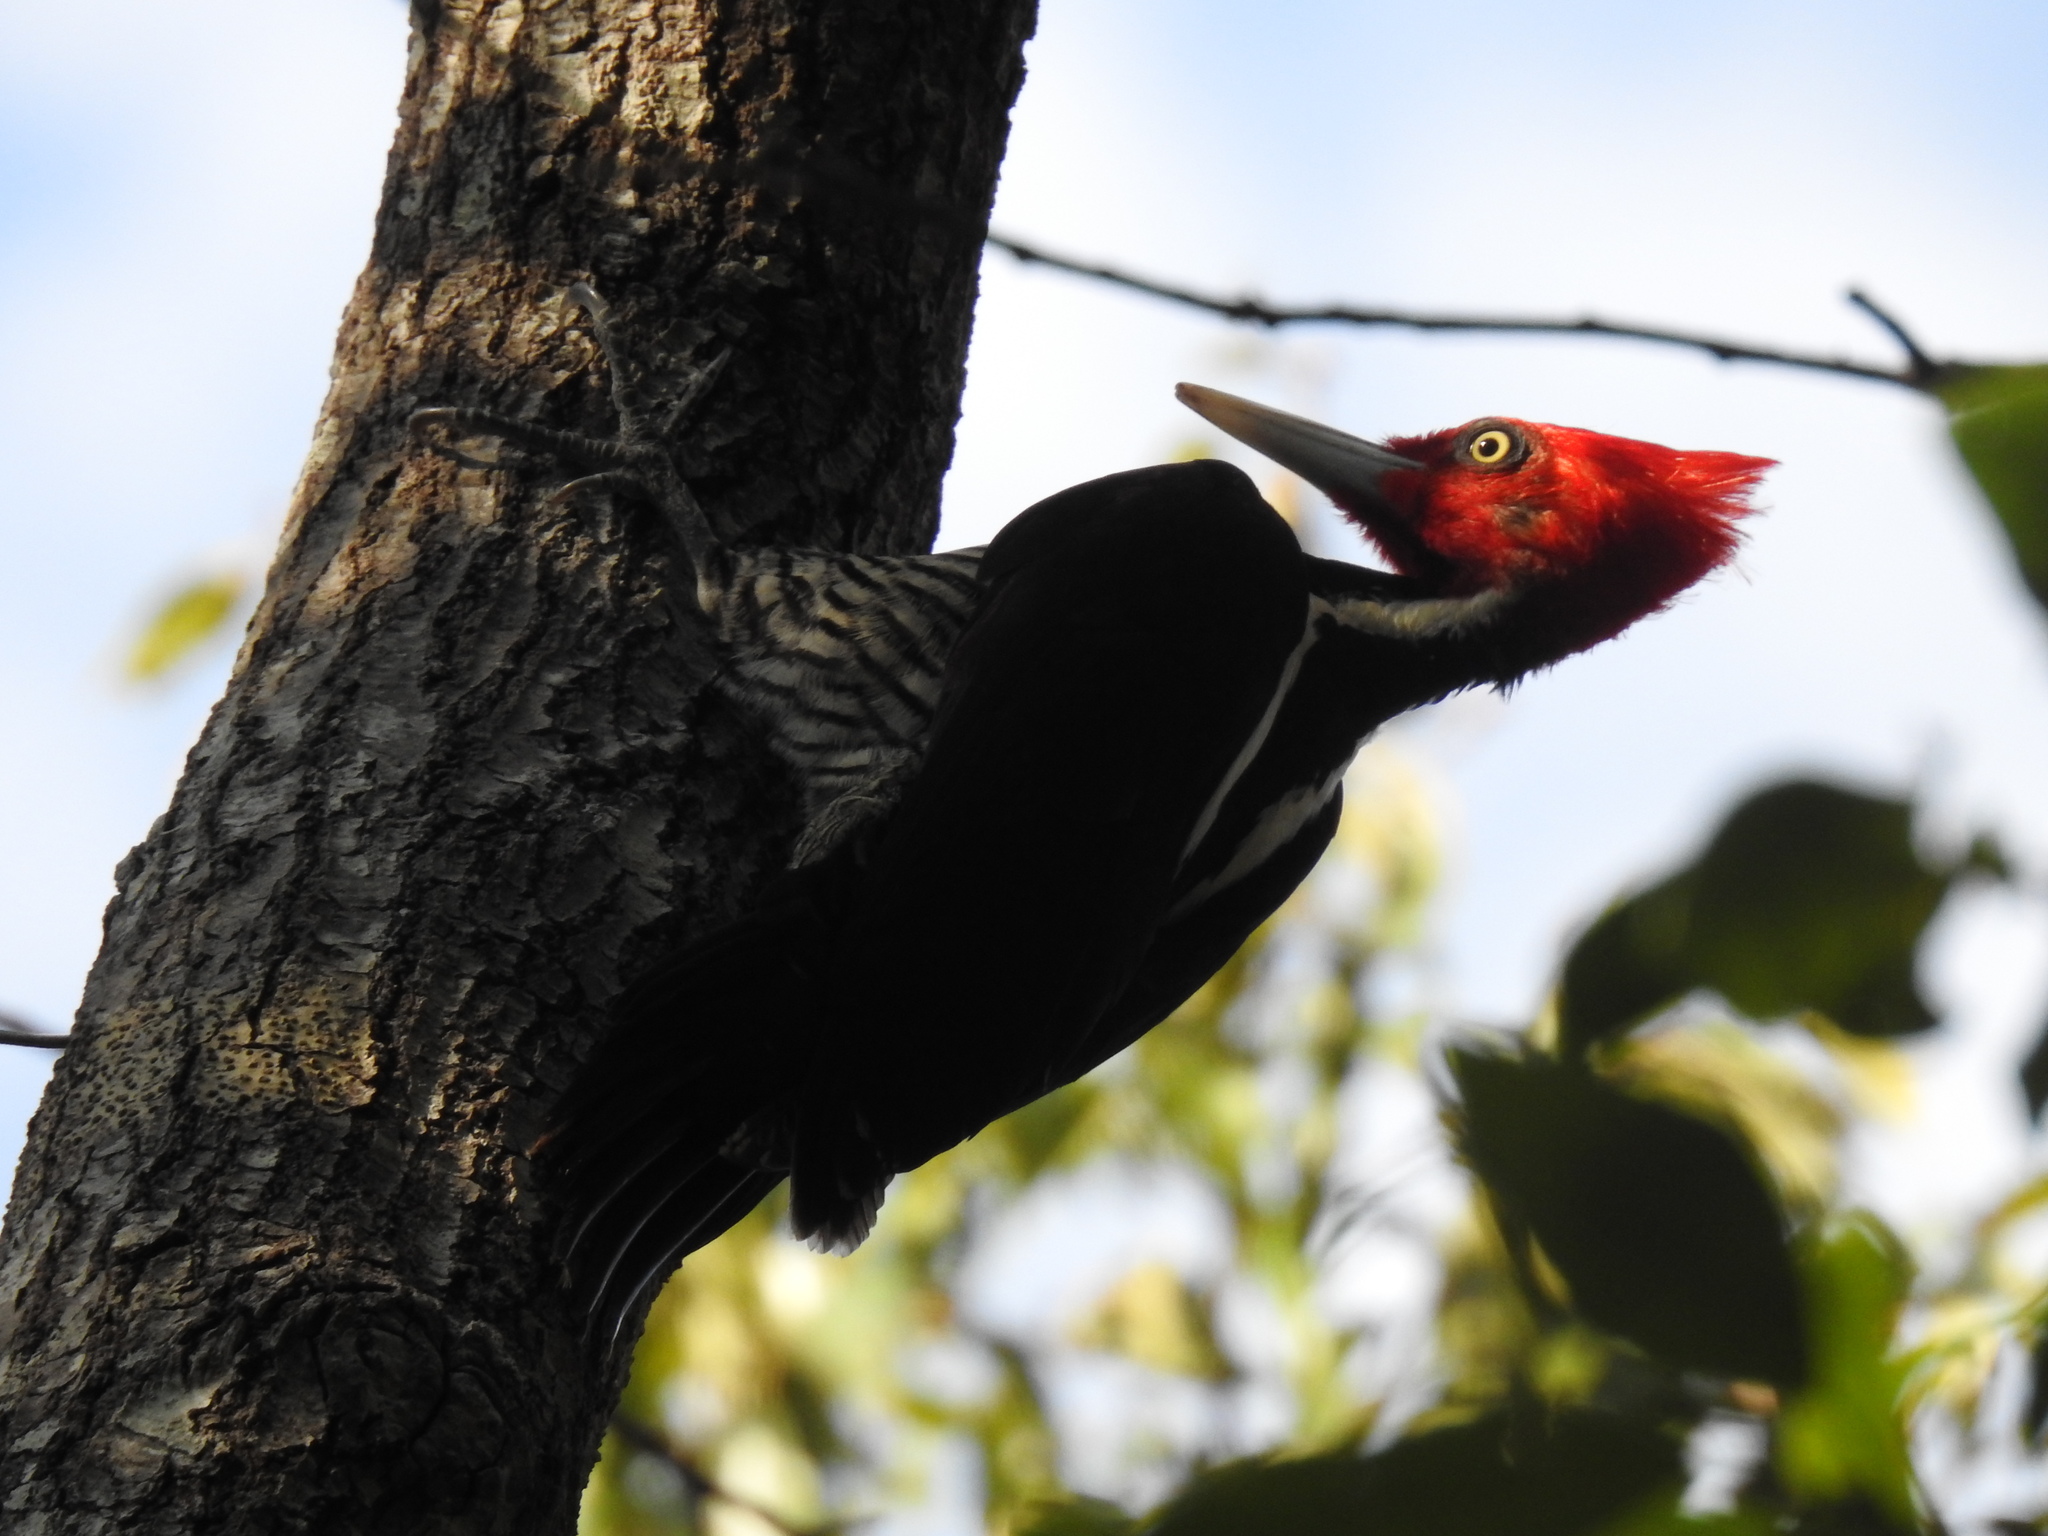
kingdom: Animalia
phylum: Chordata
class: Aves
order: Piciformes
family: Picidae
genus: Campephilus
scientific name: Campephilus guatemalensis
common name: Pale-billed woodpecker
